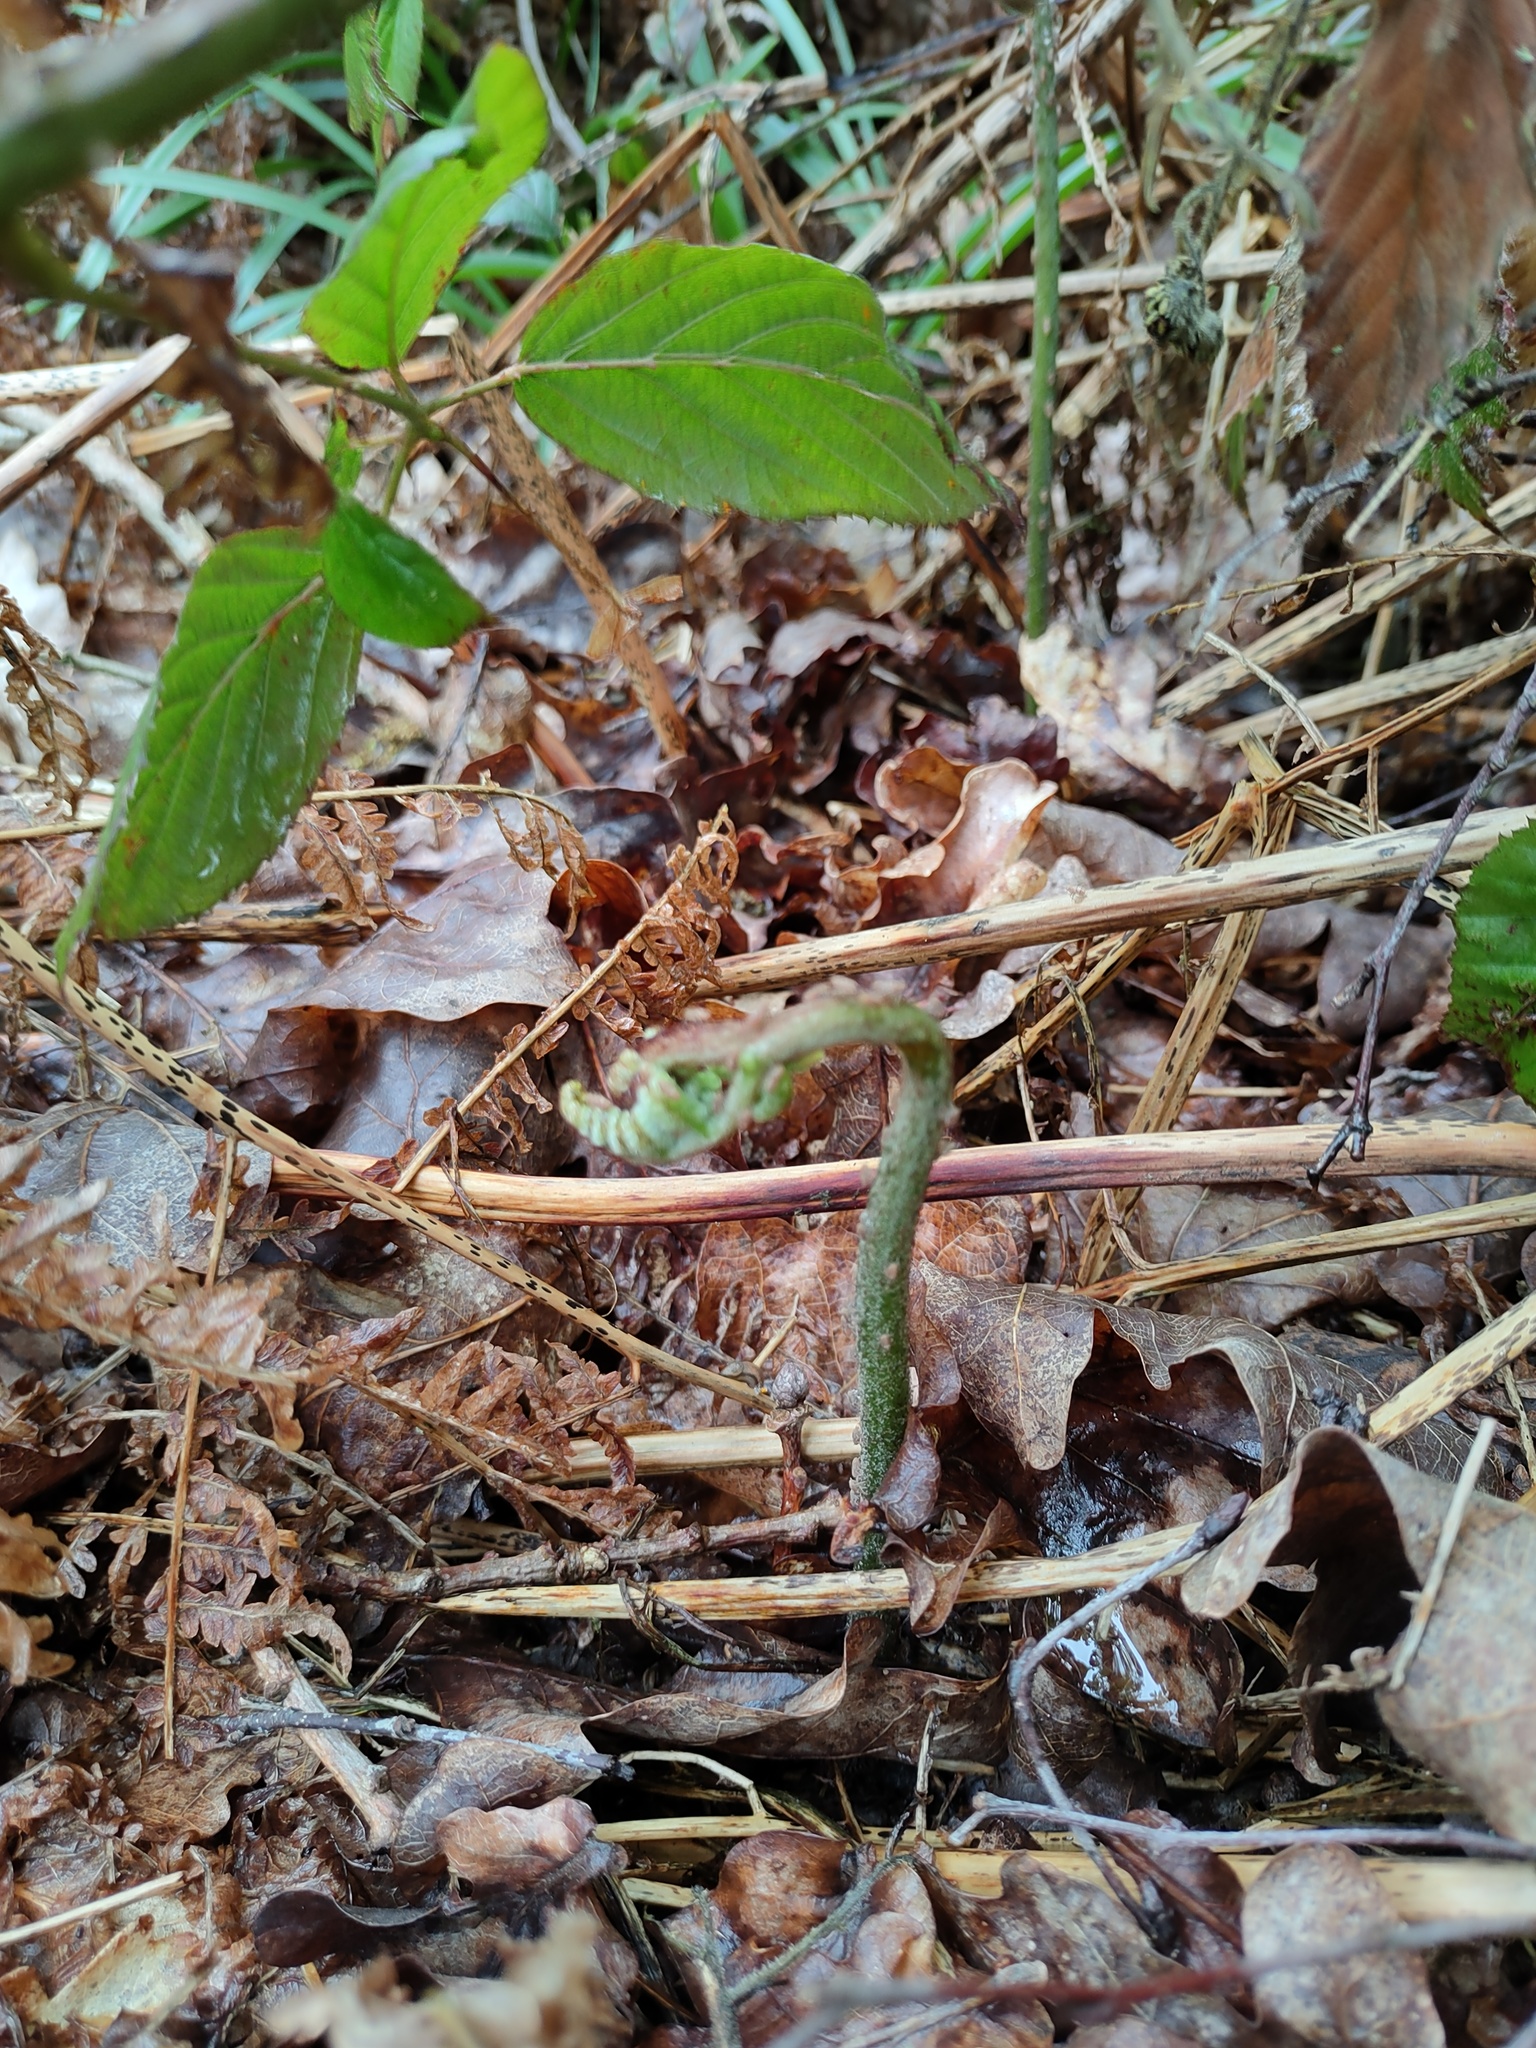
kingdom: Plantae
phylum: Tracheophyta
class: Polypodiopsida
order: Polypodiales
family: Dennstaedtiaceae
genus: Pteridium
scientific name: Pteridium aquilinum
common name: Bracken
